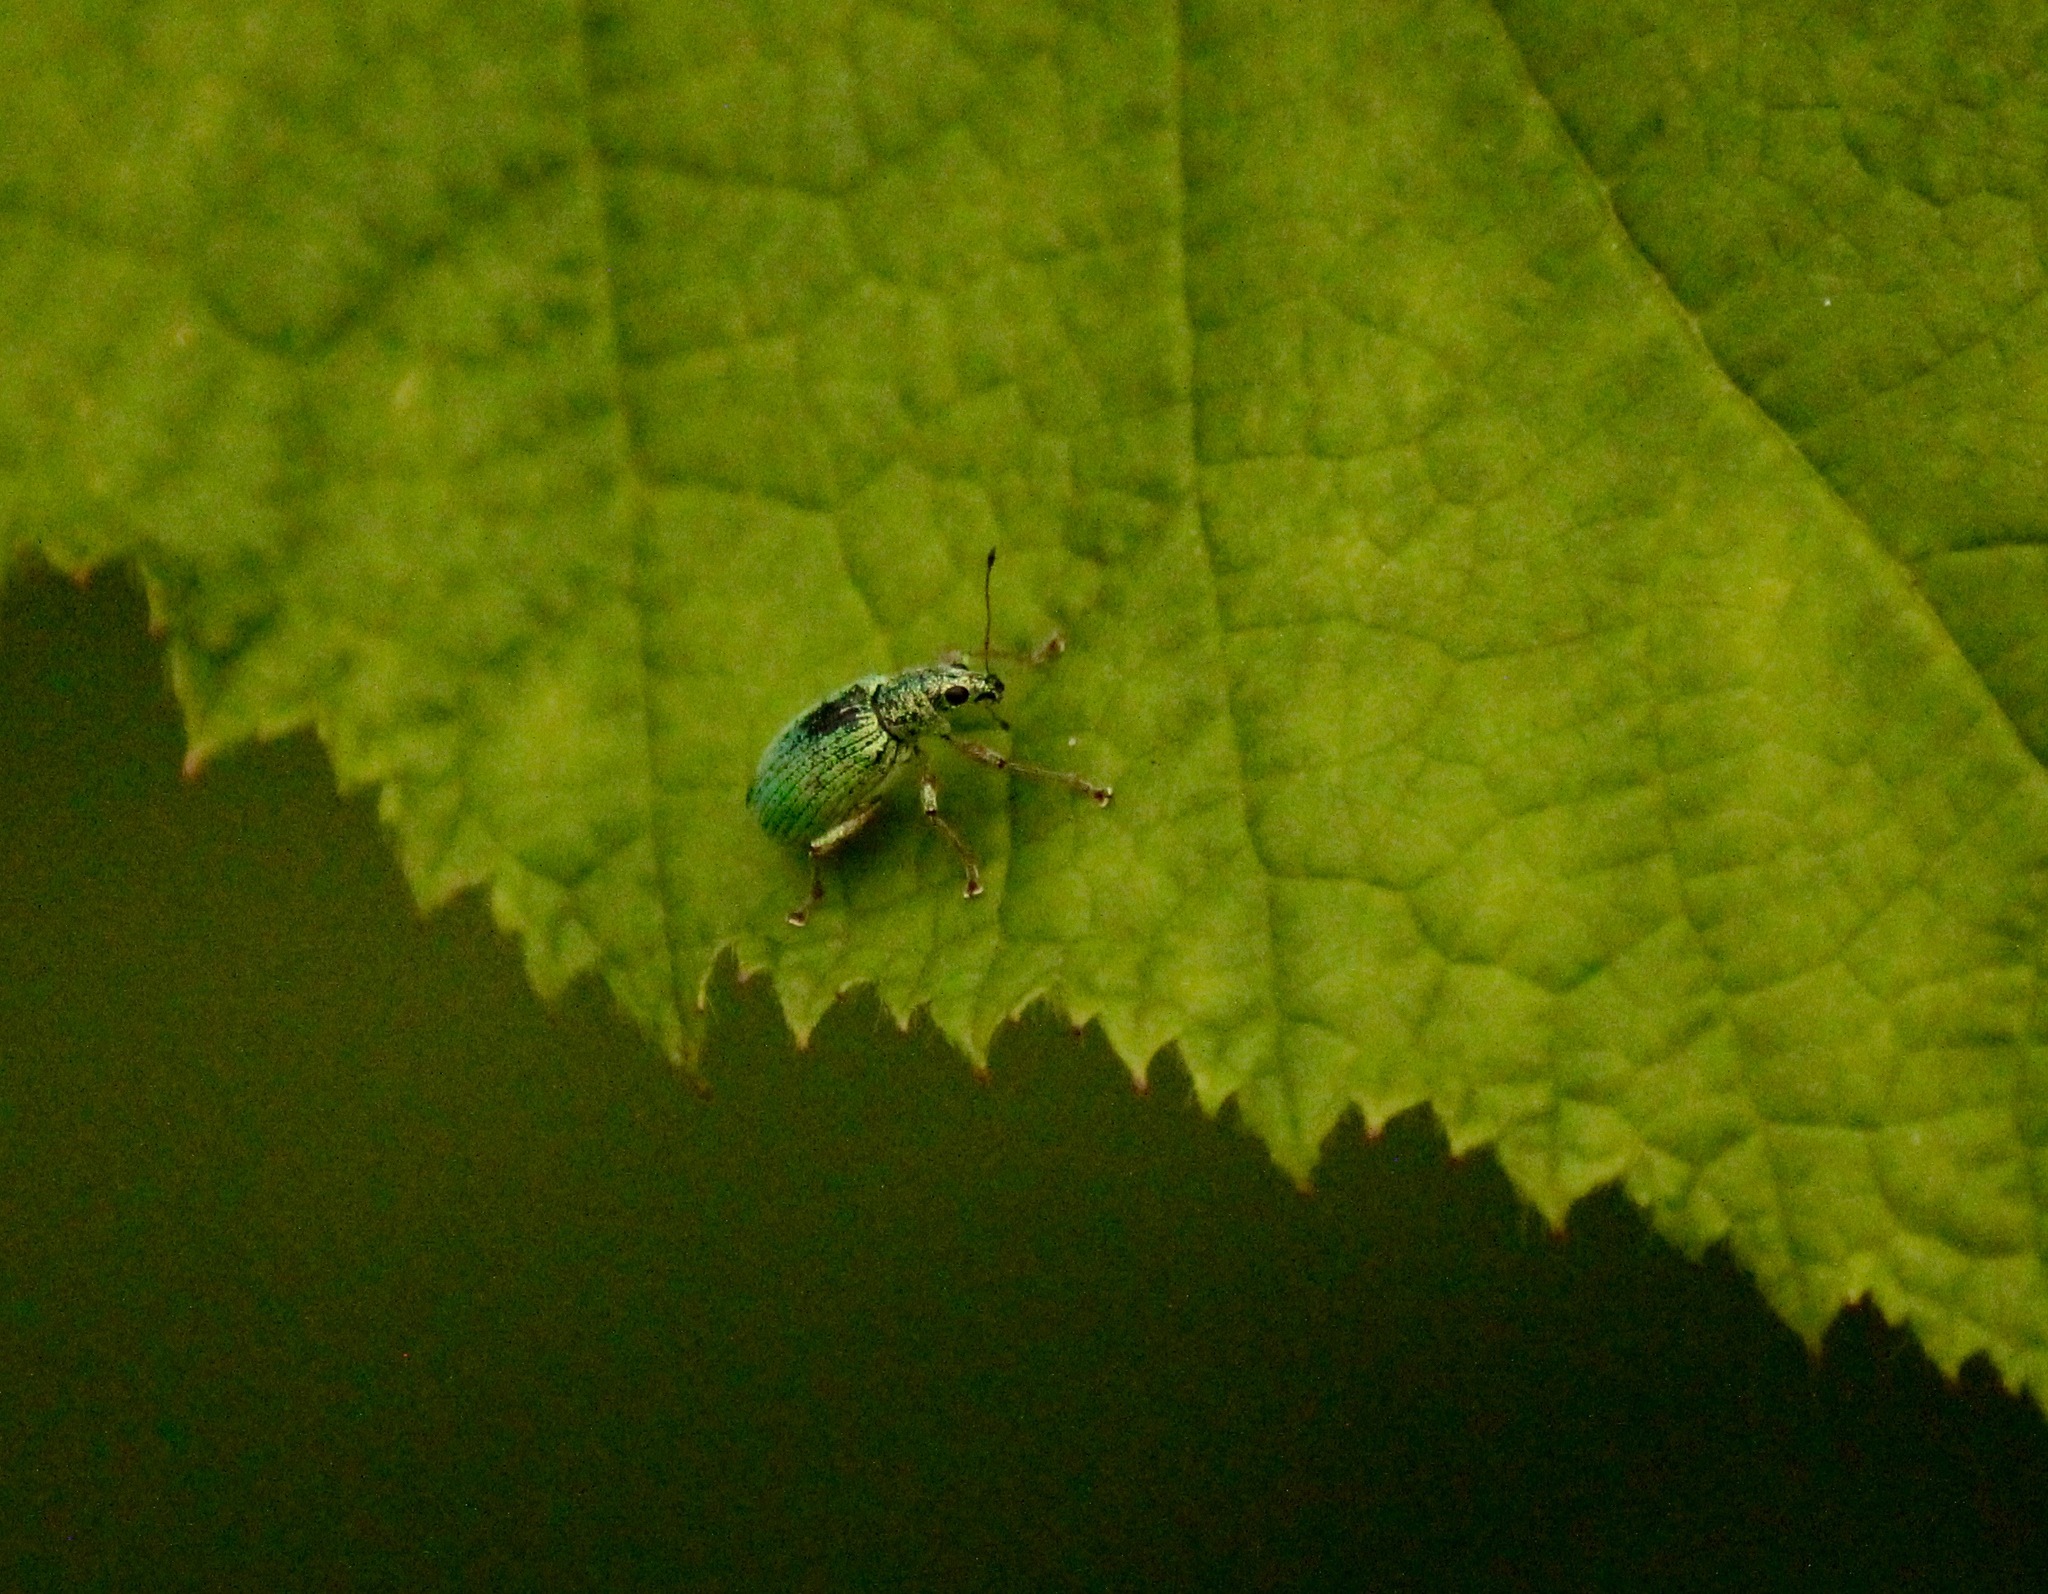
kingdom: Animalia
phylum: Arthropoda
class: Insecta
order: Coleoptera
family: Curculionidae
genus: Polydrusus
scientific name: Polydrusus formosus
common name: Weevil
